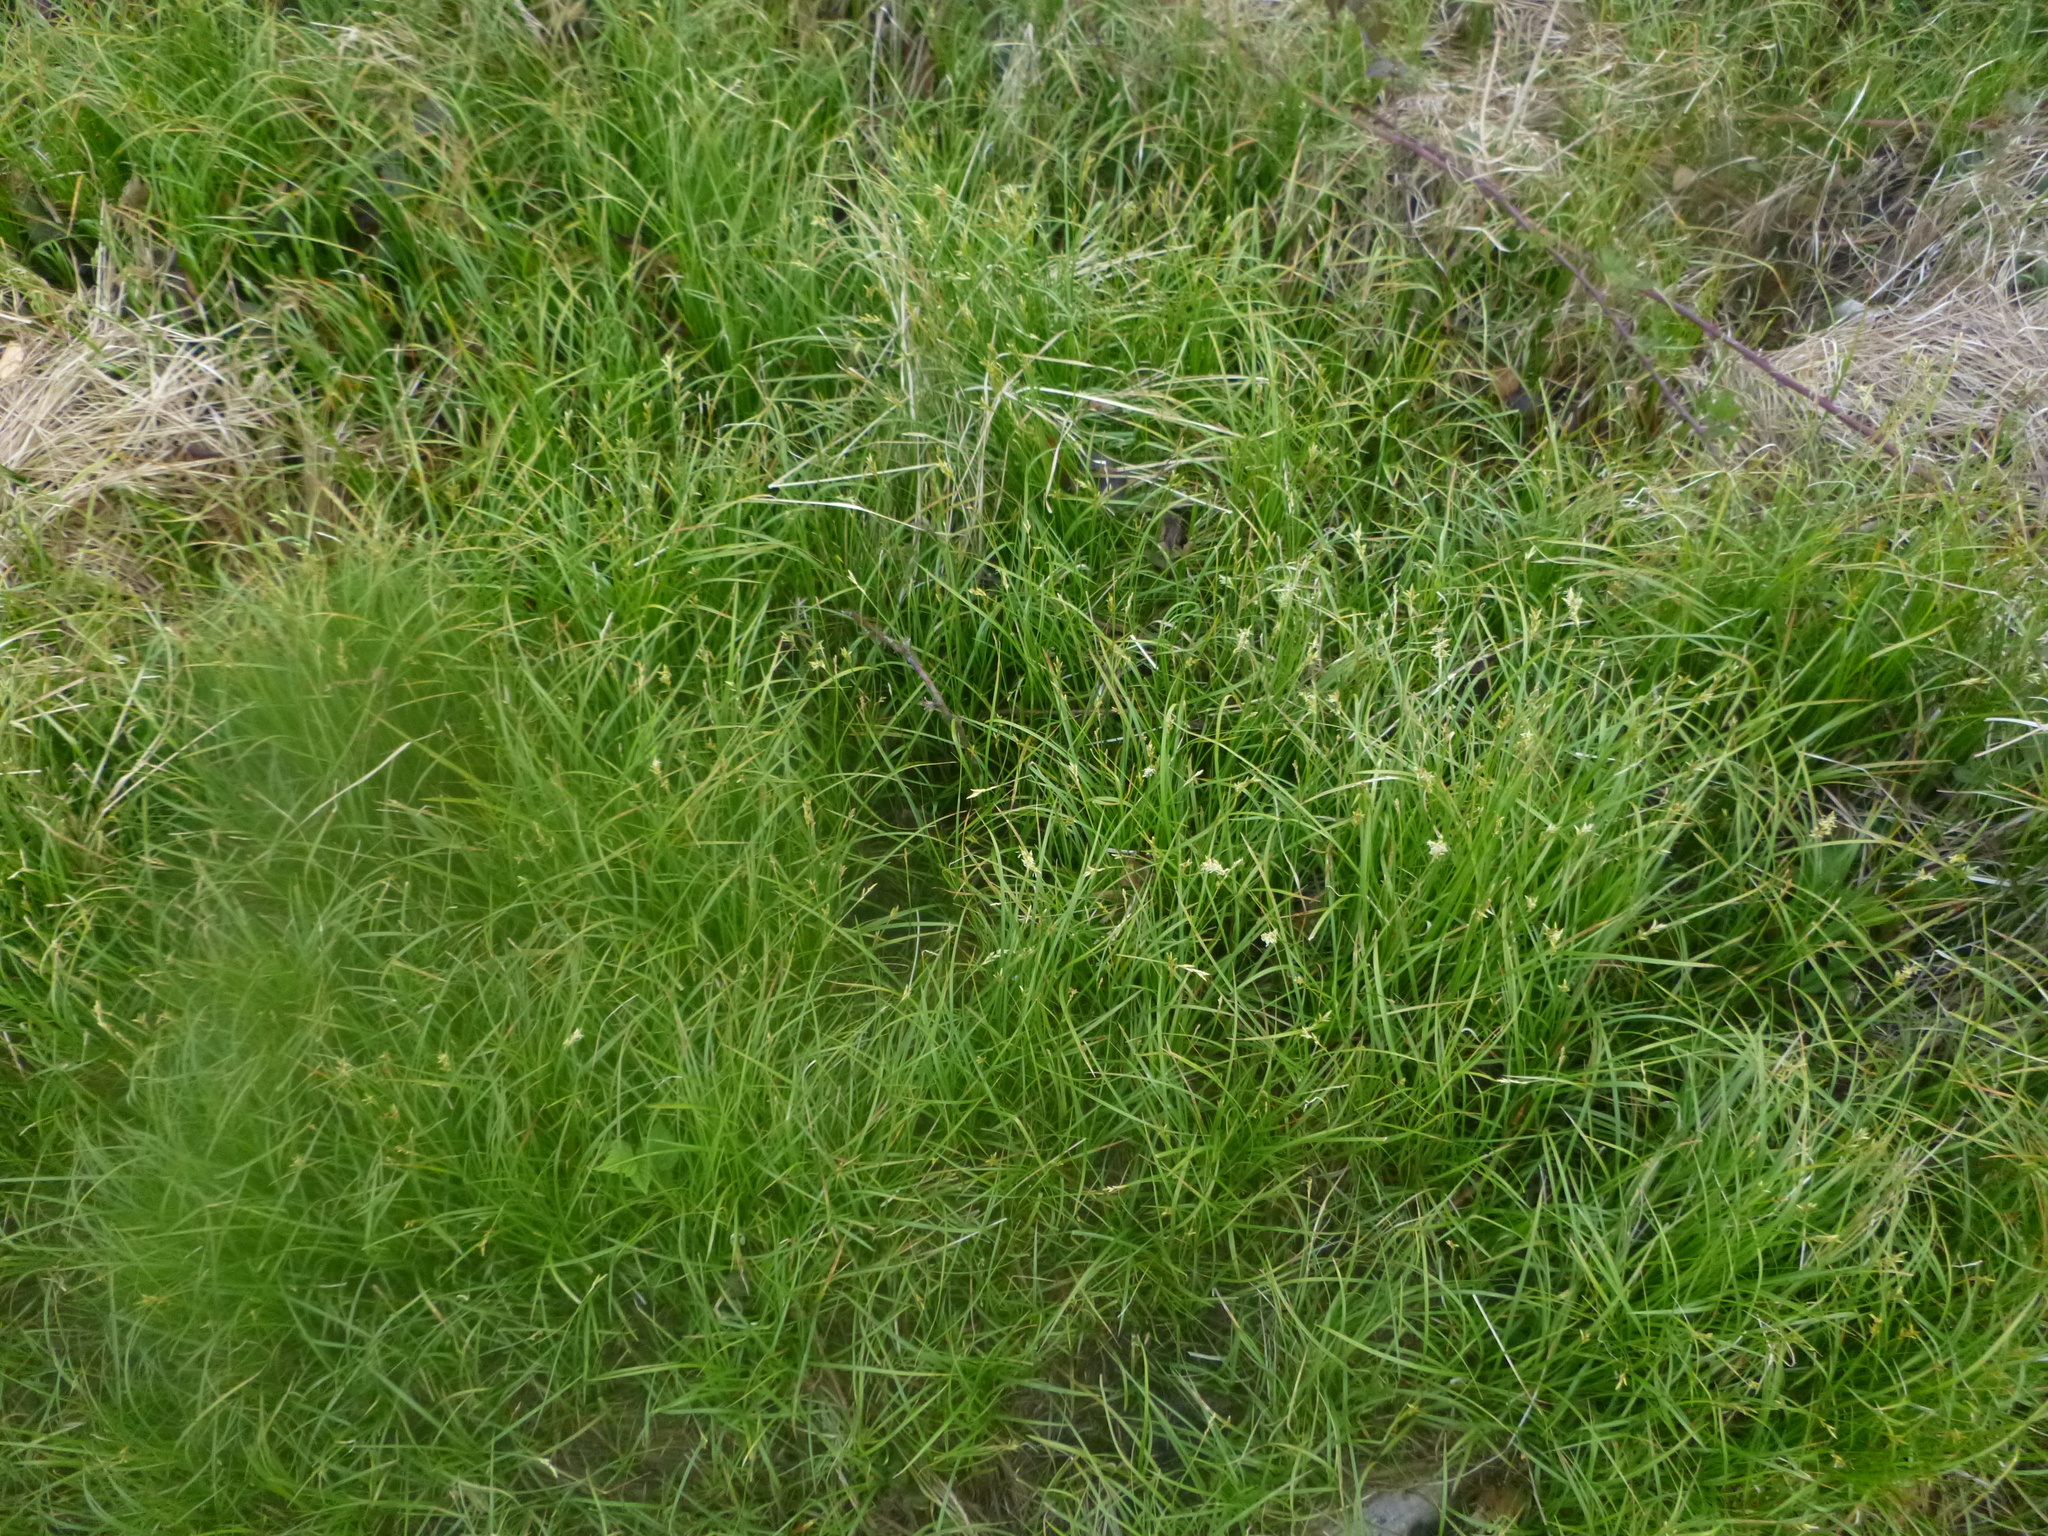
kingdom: Plantae
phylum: Tracheophyta
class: Liliopsida
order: Poales
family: Cyperaceae
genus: Carex
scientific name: Carex brizoides
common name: Quaking-grass sedge
